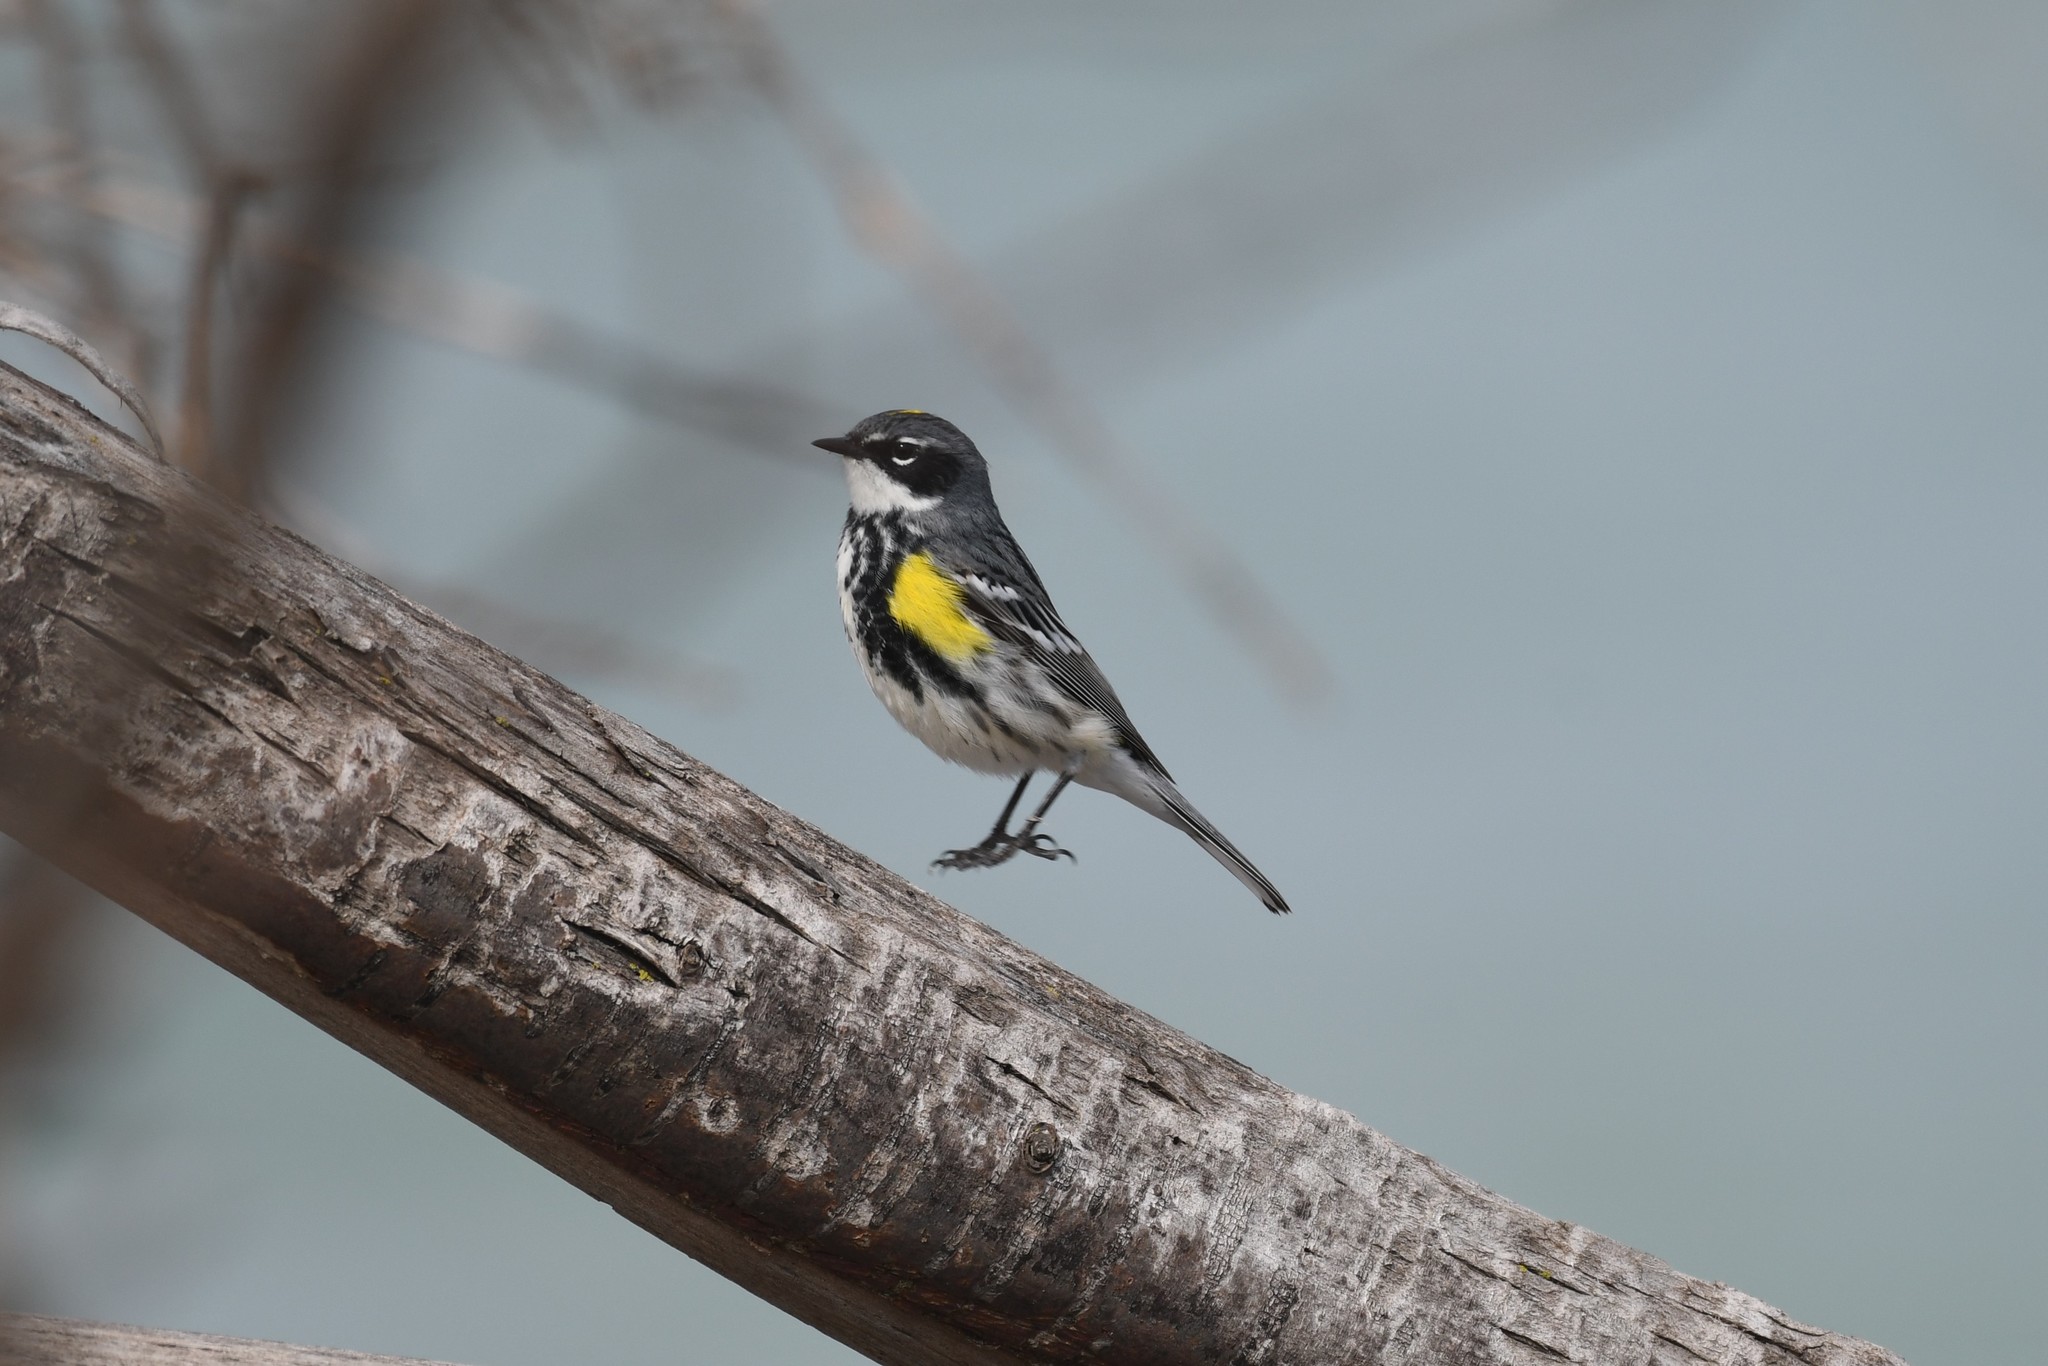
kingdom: Animalia
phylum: Chordata
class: Aves
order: Passeriformes
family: Parulidae
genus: Setophaga
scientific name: Setophaga coronata
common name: Myrtle warbler
